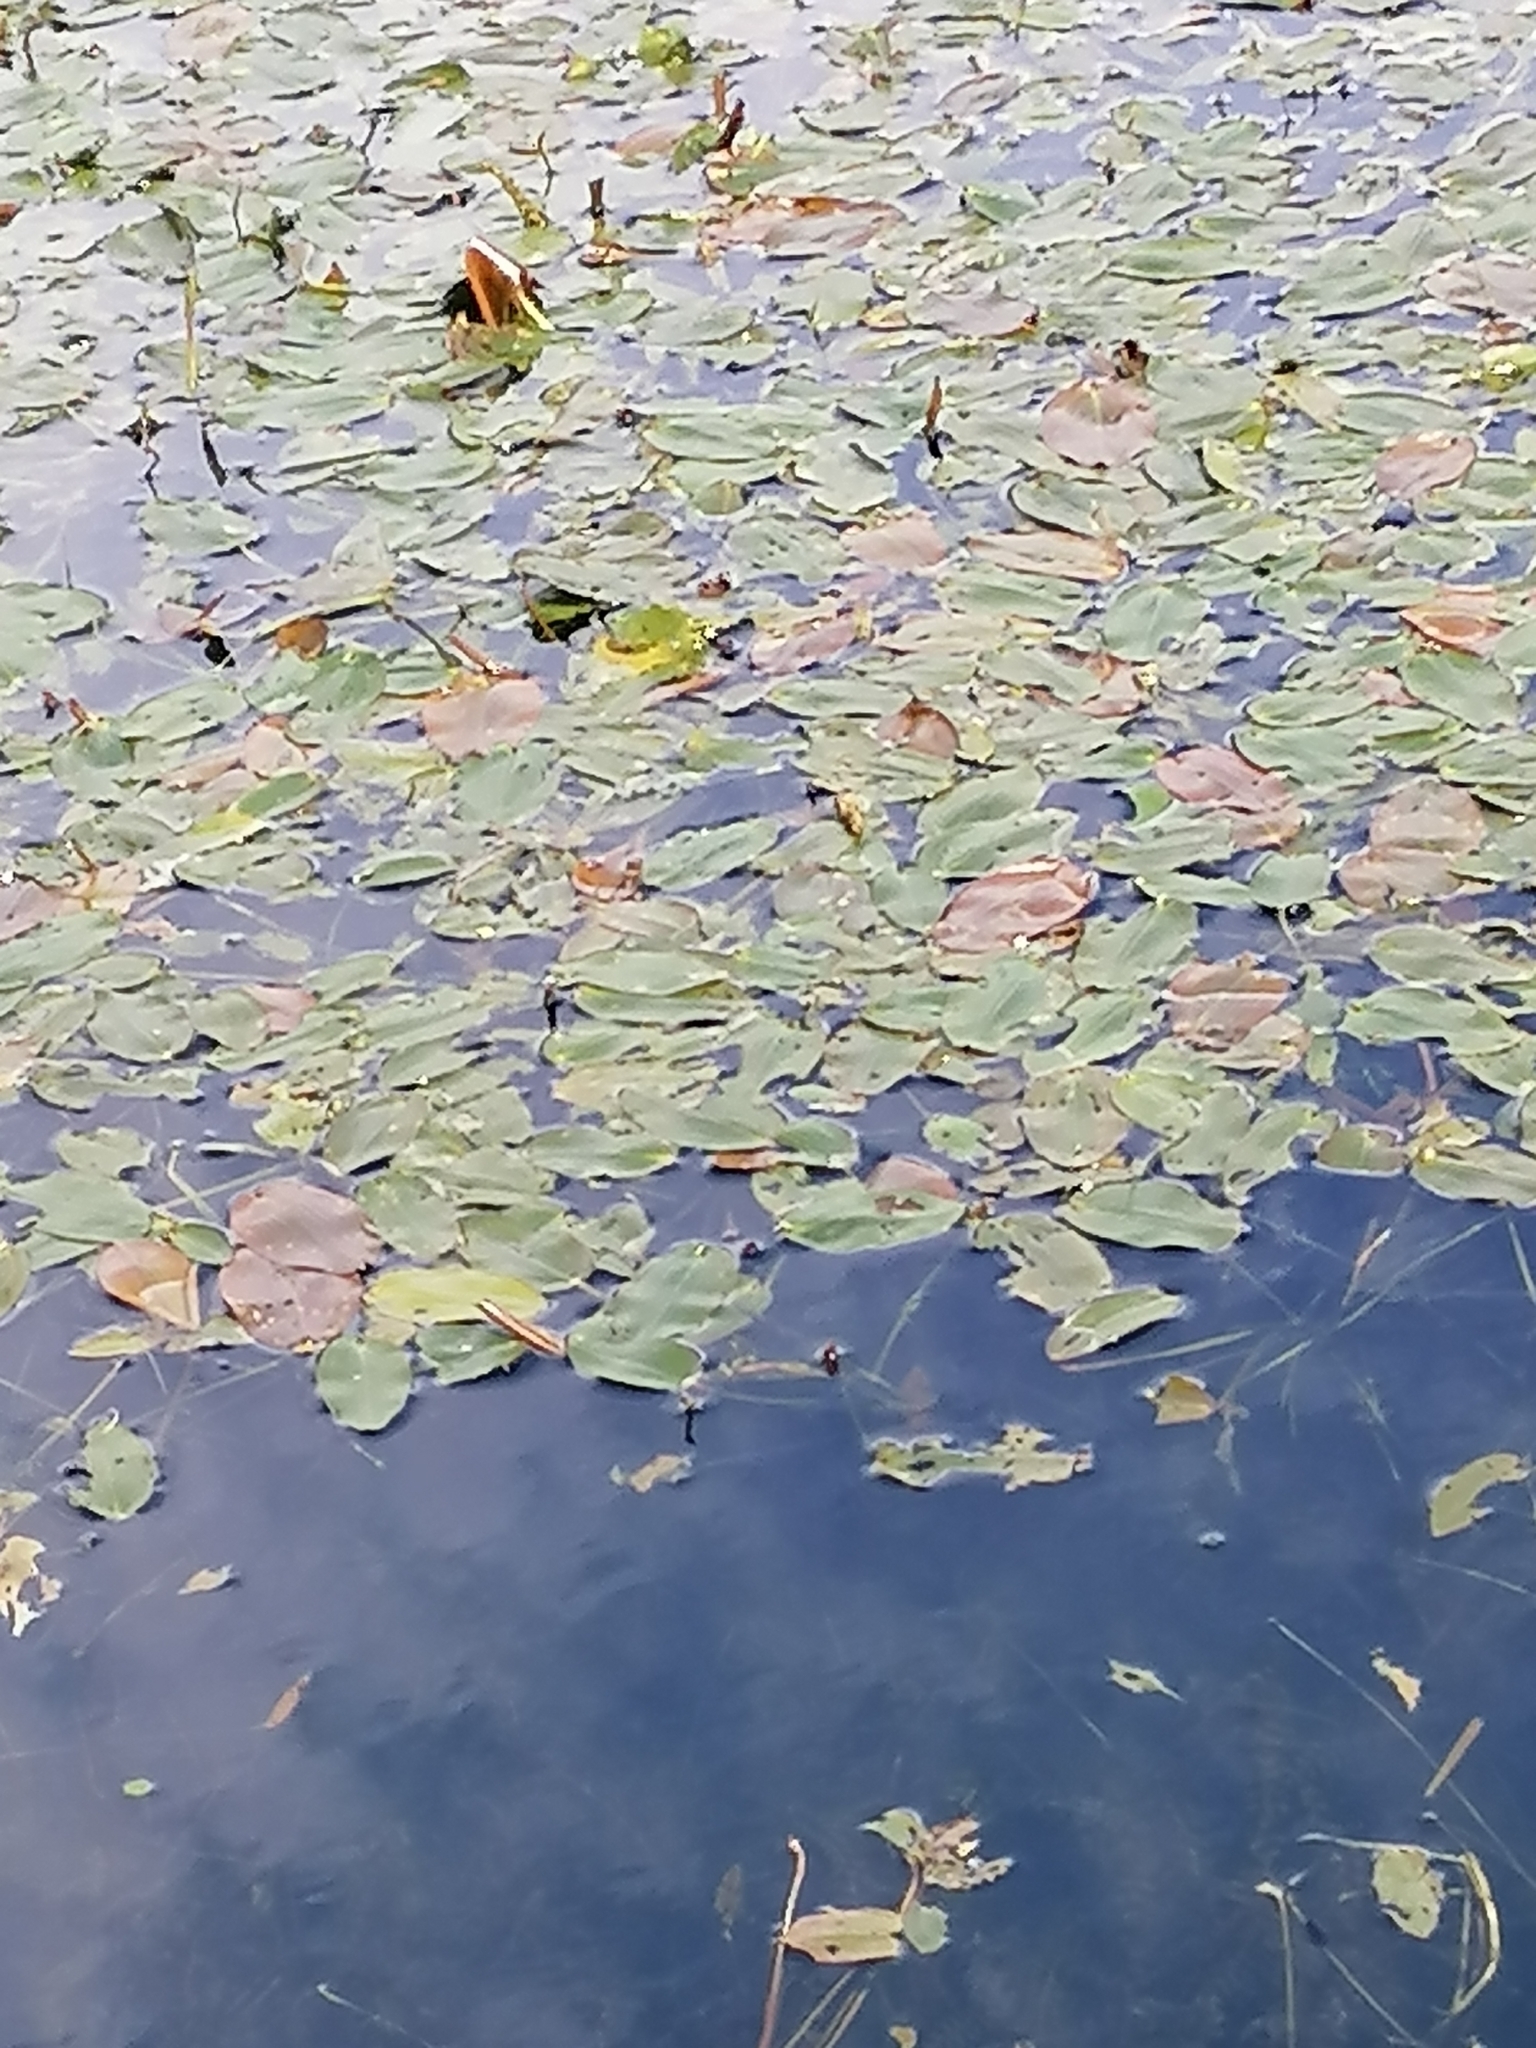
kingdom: Plantae
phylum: Tracheophyta
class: Liliopsida
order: Alismatales
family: Potamogetonaceae
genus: Potamogeton
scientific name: Potamogeton natans
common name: Broad-leaved pondweed
